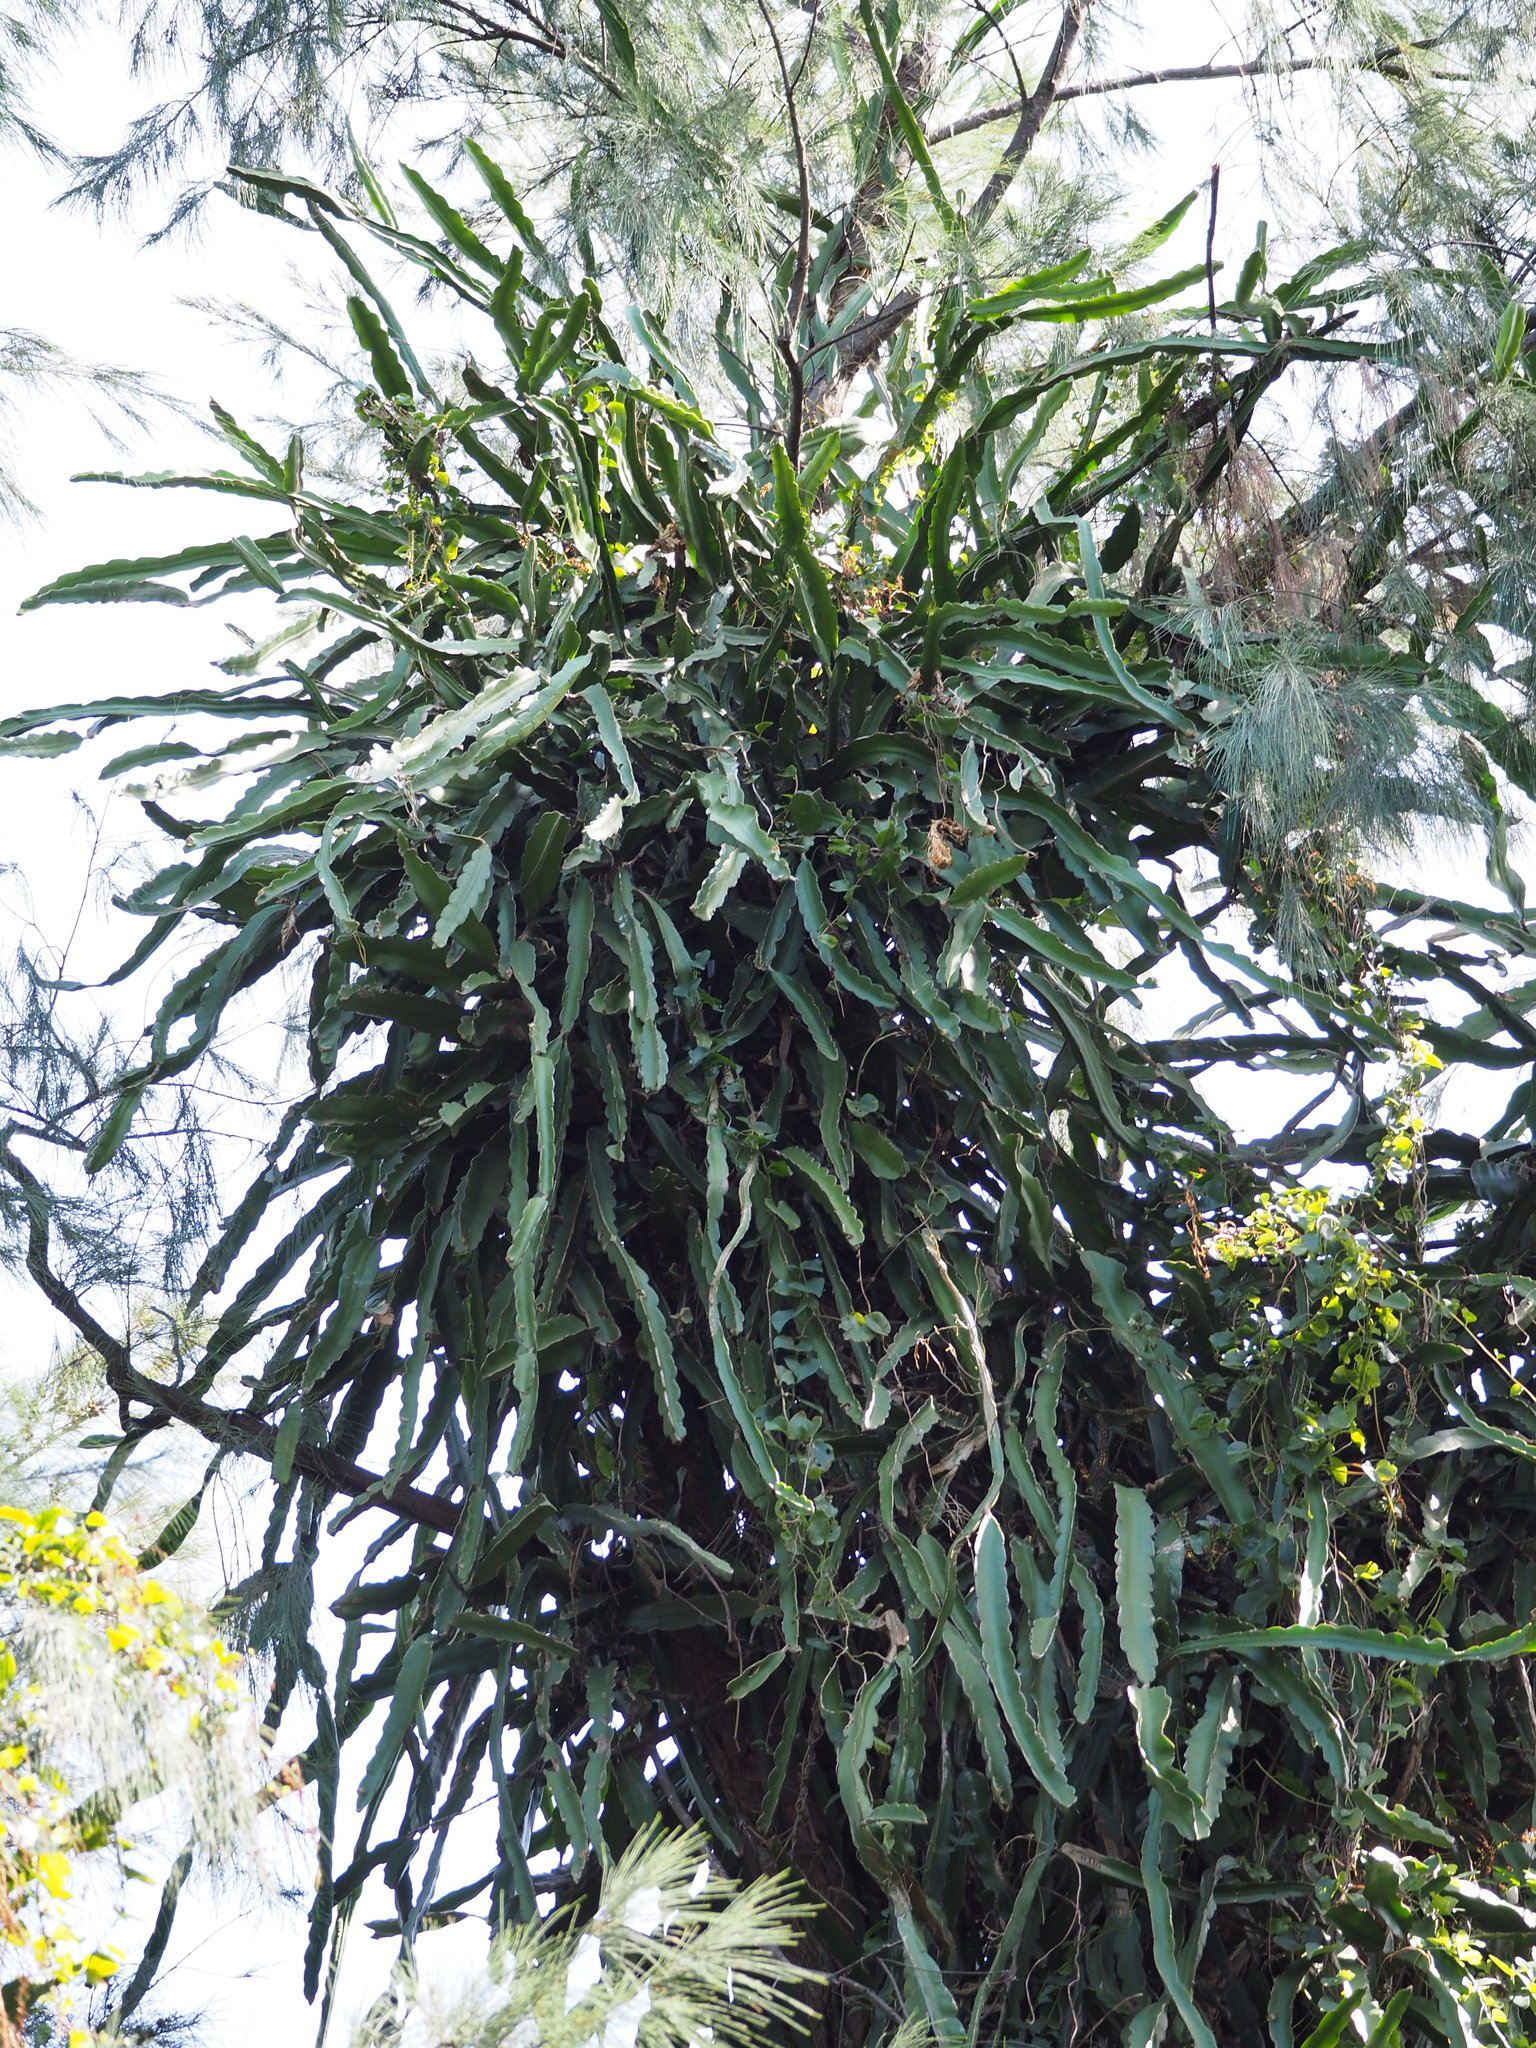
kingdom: Plantae
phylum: Tracheophyta
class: Magnoliopsida
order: Caryophyllales
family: Cactaceae
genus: Selenicereus
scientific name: Selenicereus undatus
